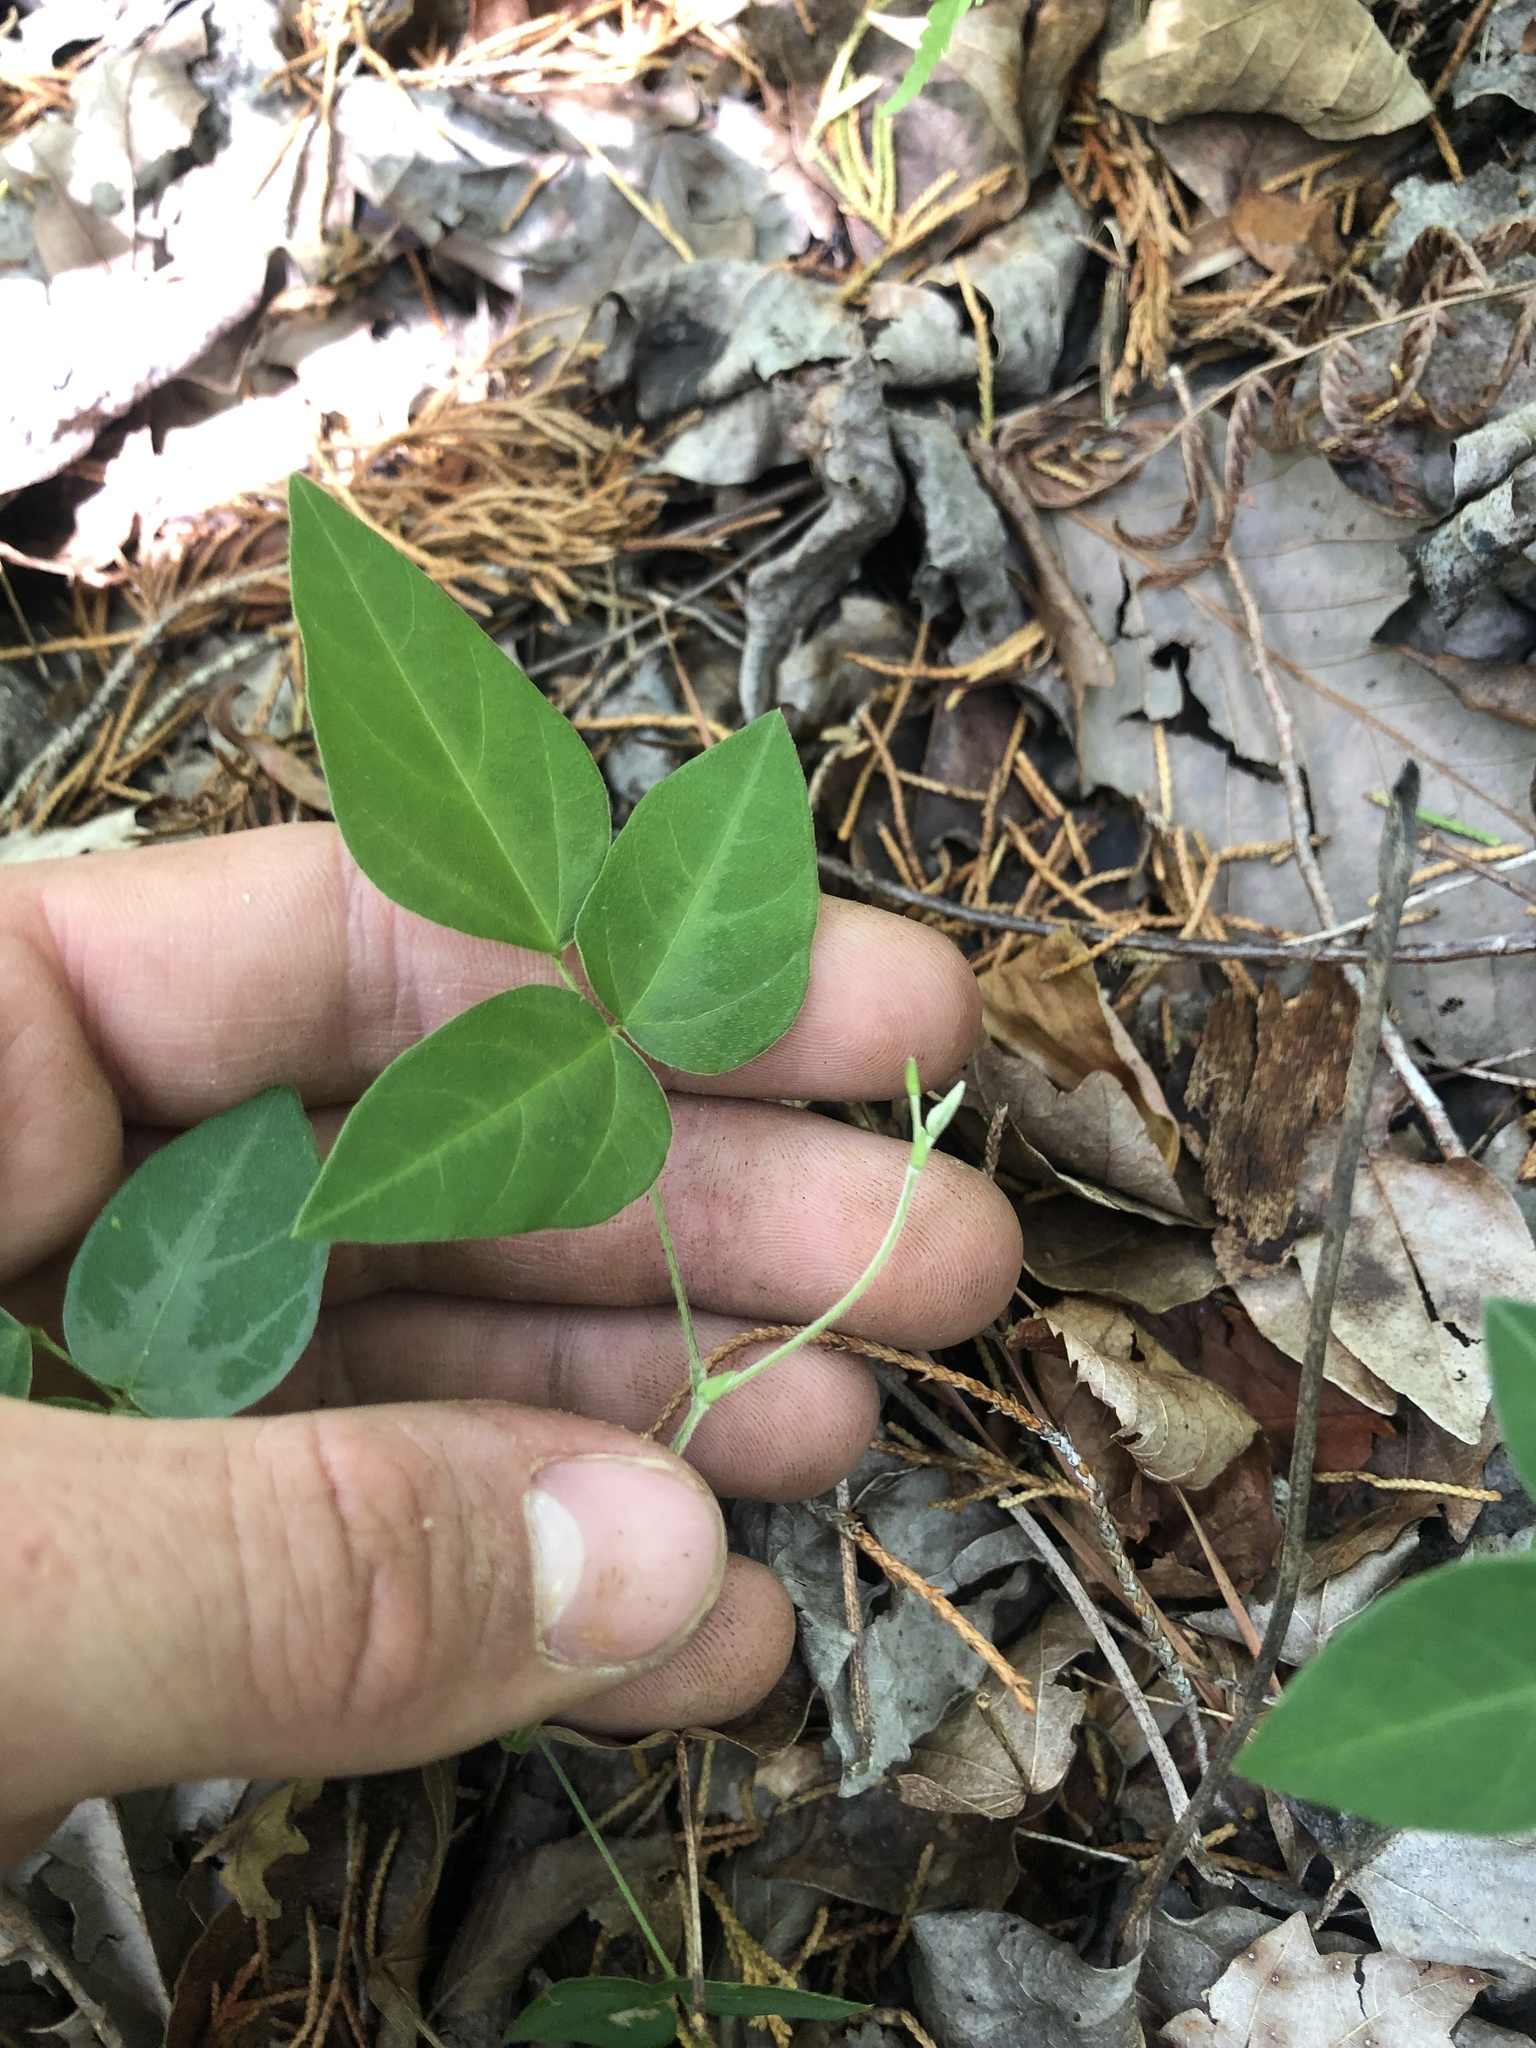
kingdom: Plantae
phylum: Tracheophyta
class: Magnoliopsida
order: Fabales
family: Fabaceae
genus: Amphicarpaea
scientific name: Amphicarpaea bracteata
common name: American hog peanut
